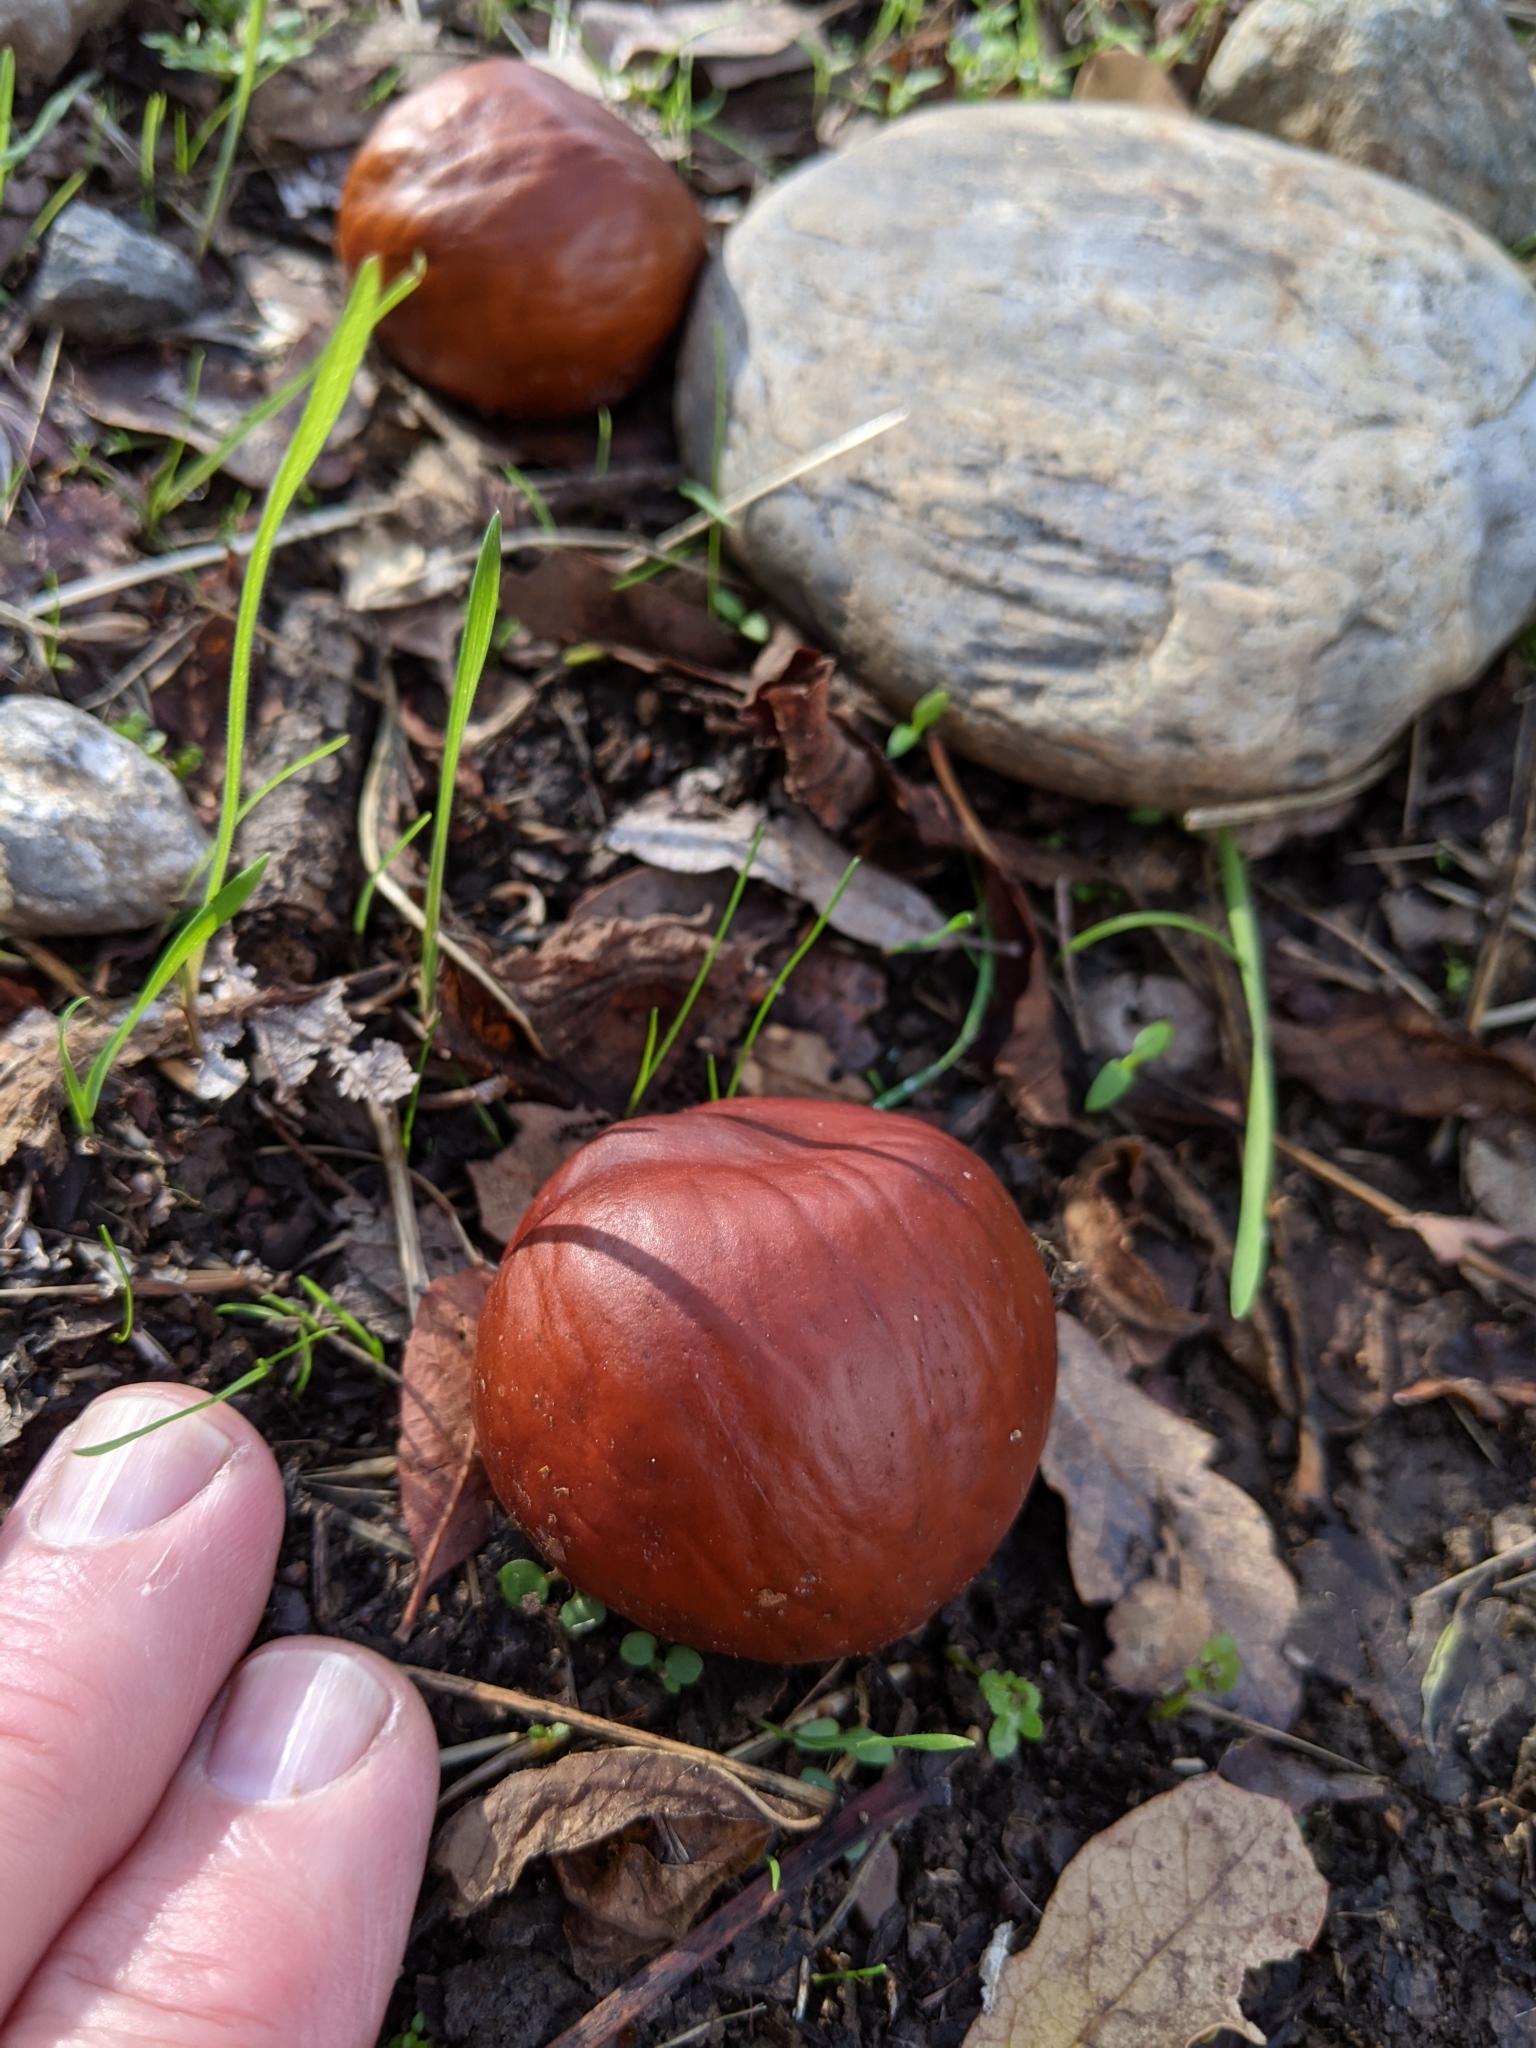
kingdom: Plantae
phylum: Tracheophyta
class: Magnoliopsida
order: Sapindales
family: Sapindaceae
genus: Aesculus
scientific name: Aesculus californica
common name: California buckeye
